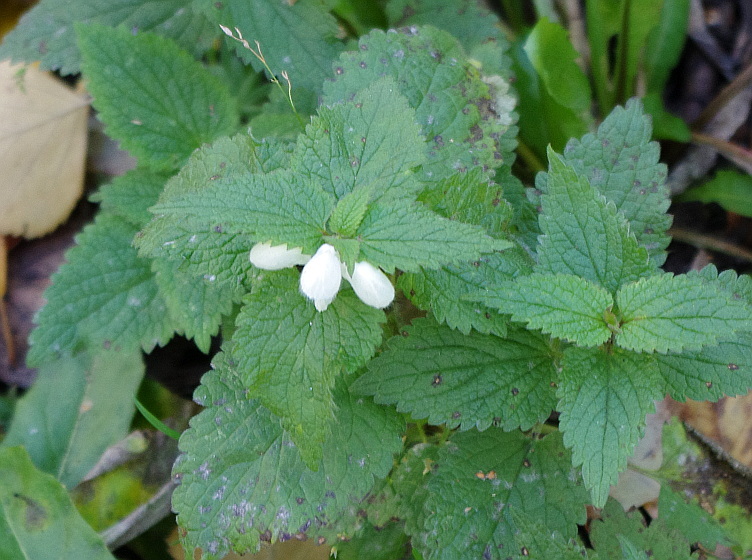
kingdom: Plantae
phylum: Tracheophyta
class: Magnoliopsida
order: Lamiales
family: Lamiaceae
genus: Lamium
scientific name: Lamium album
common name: White dead-nettle
